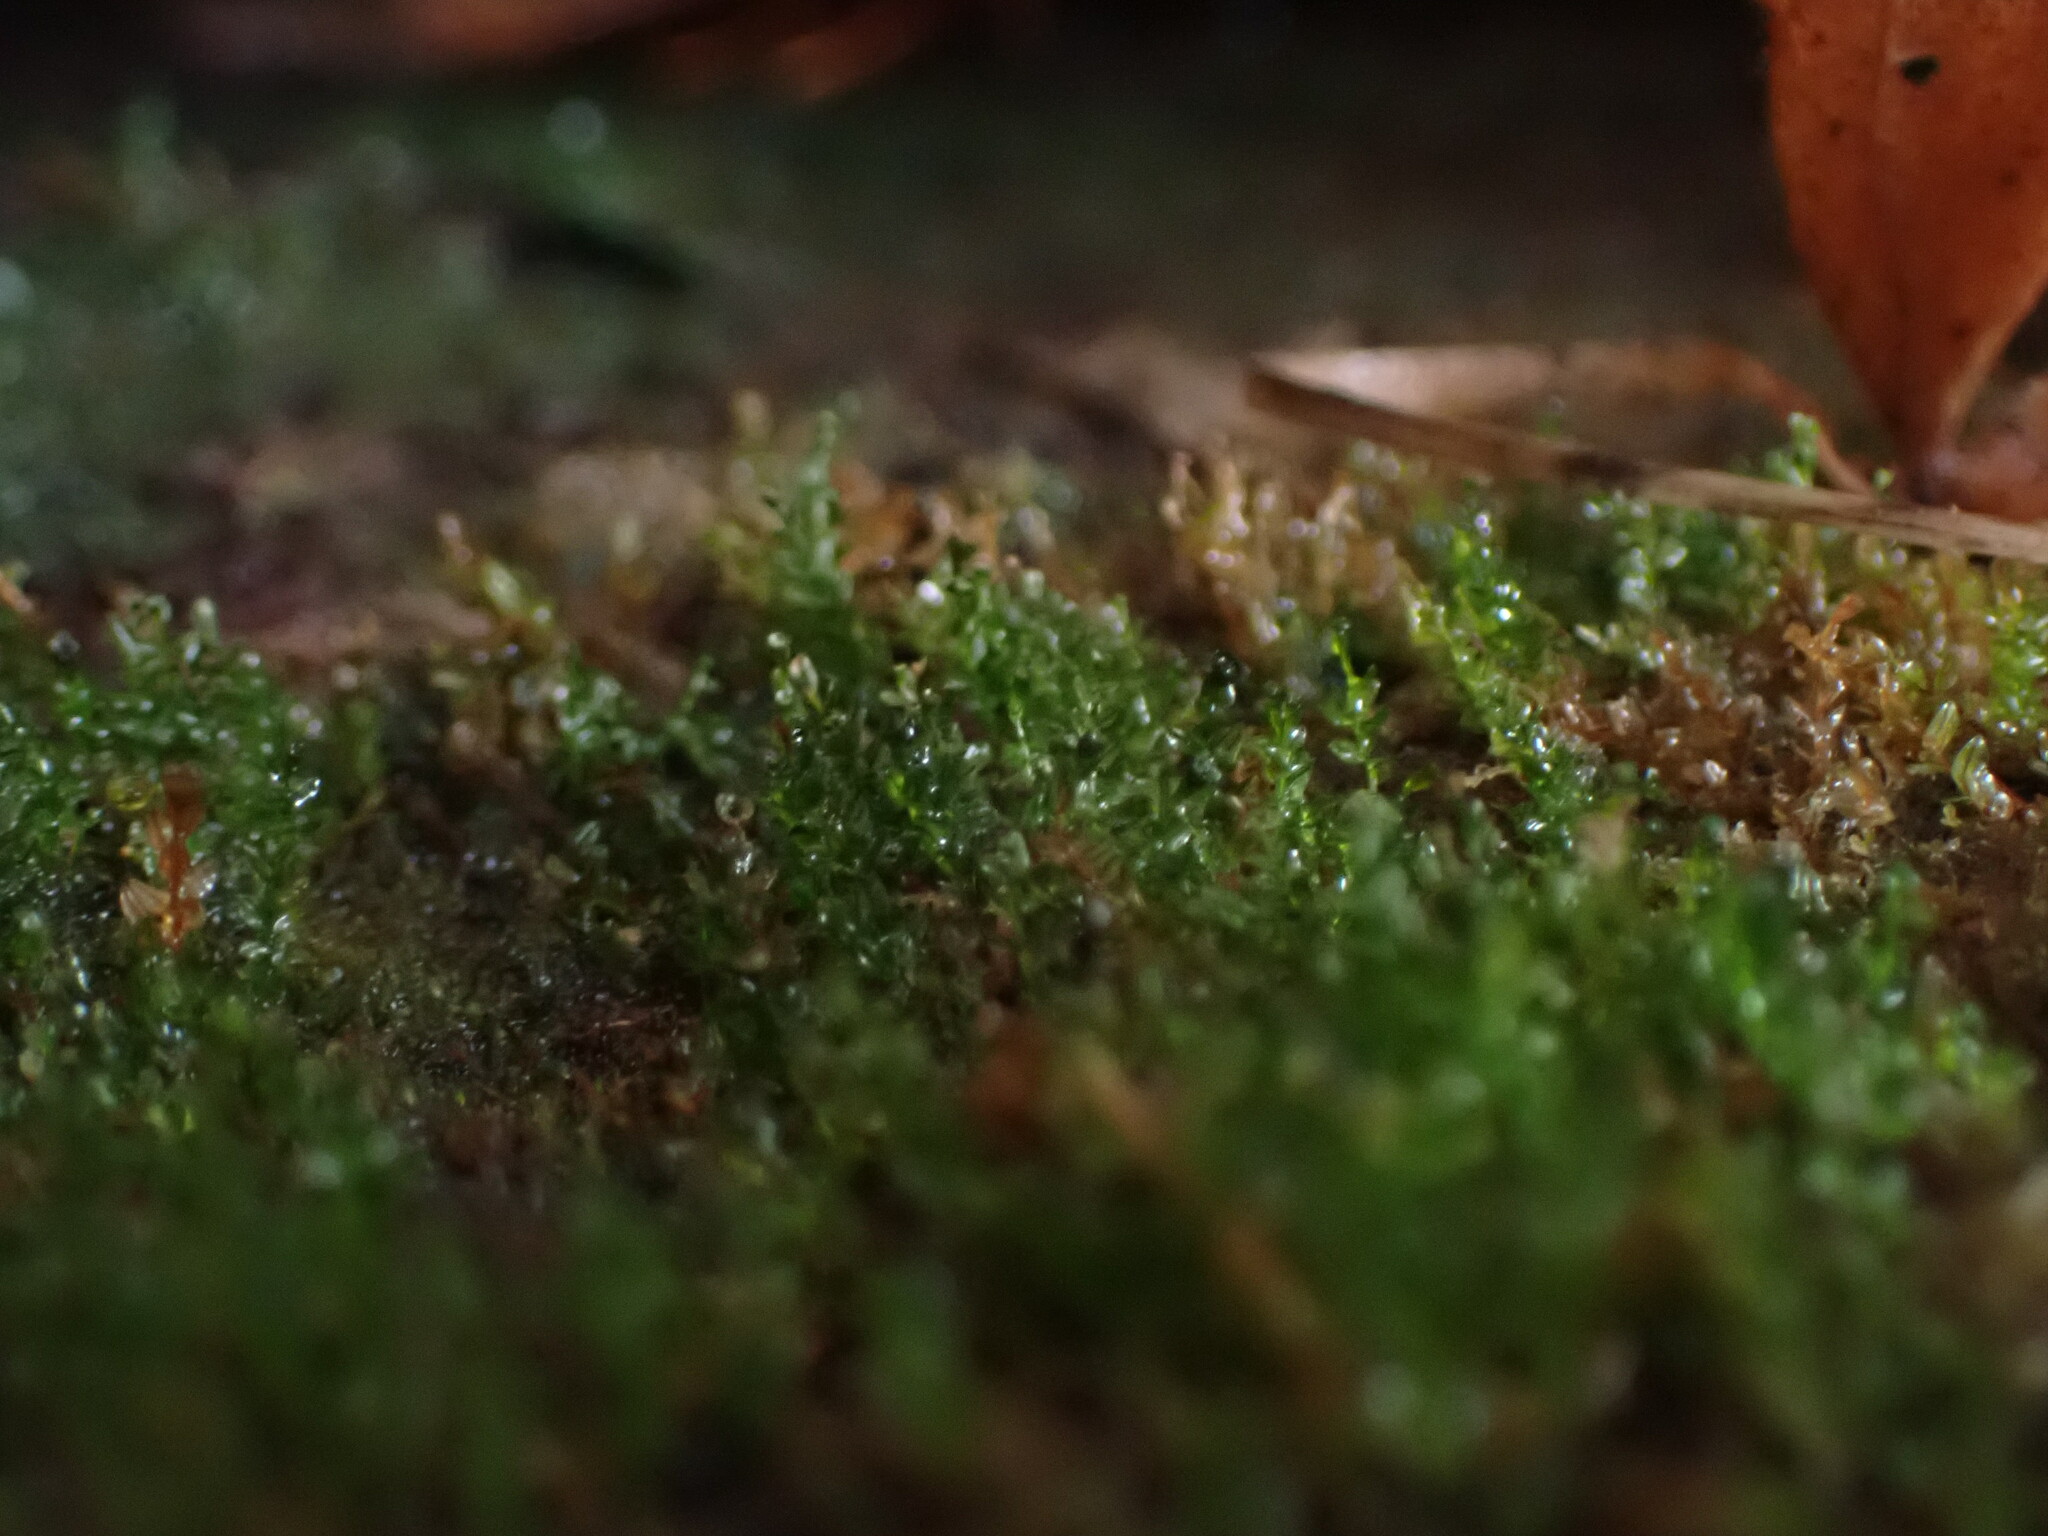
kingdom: Plantae
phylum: Bryophyta
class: Polytrichopsida
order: Tetraphidales
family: Tetraphidaceae
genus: Tetraphis
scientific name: Tetraphis pellucida
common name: Common four-toothed moss
